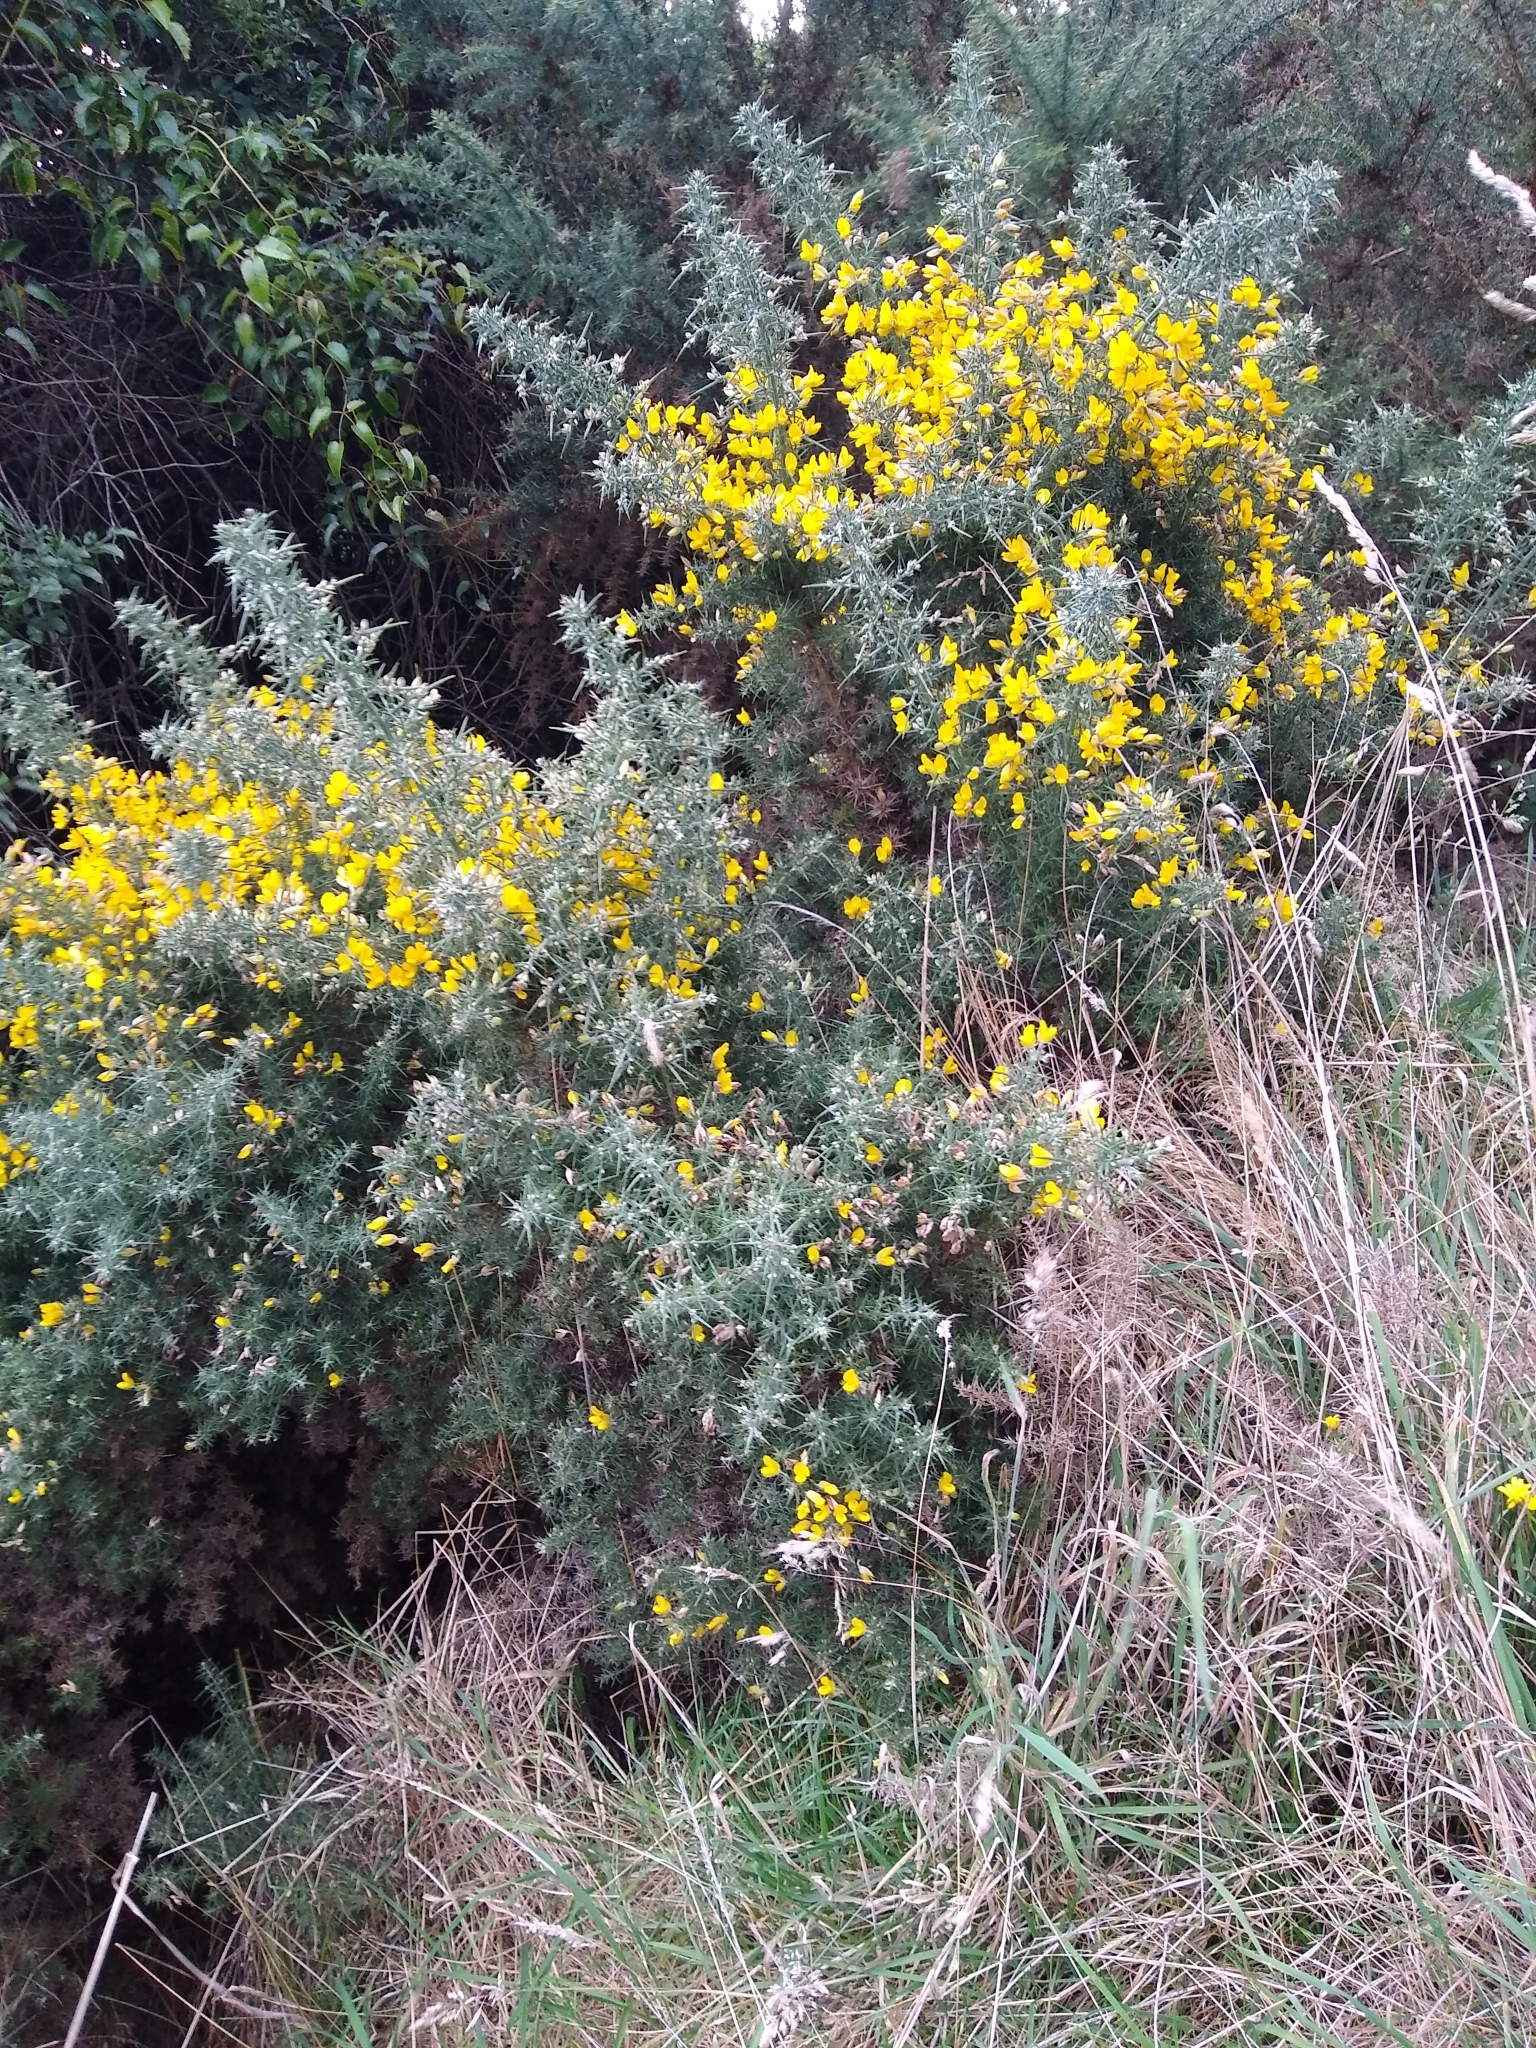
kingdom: Plantae
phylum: Tracheophyta
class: Magnoliopsida
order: Fabales
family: Fabaceae
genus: Ulex
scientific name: Ulex europaeus
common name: Common gorse
